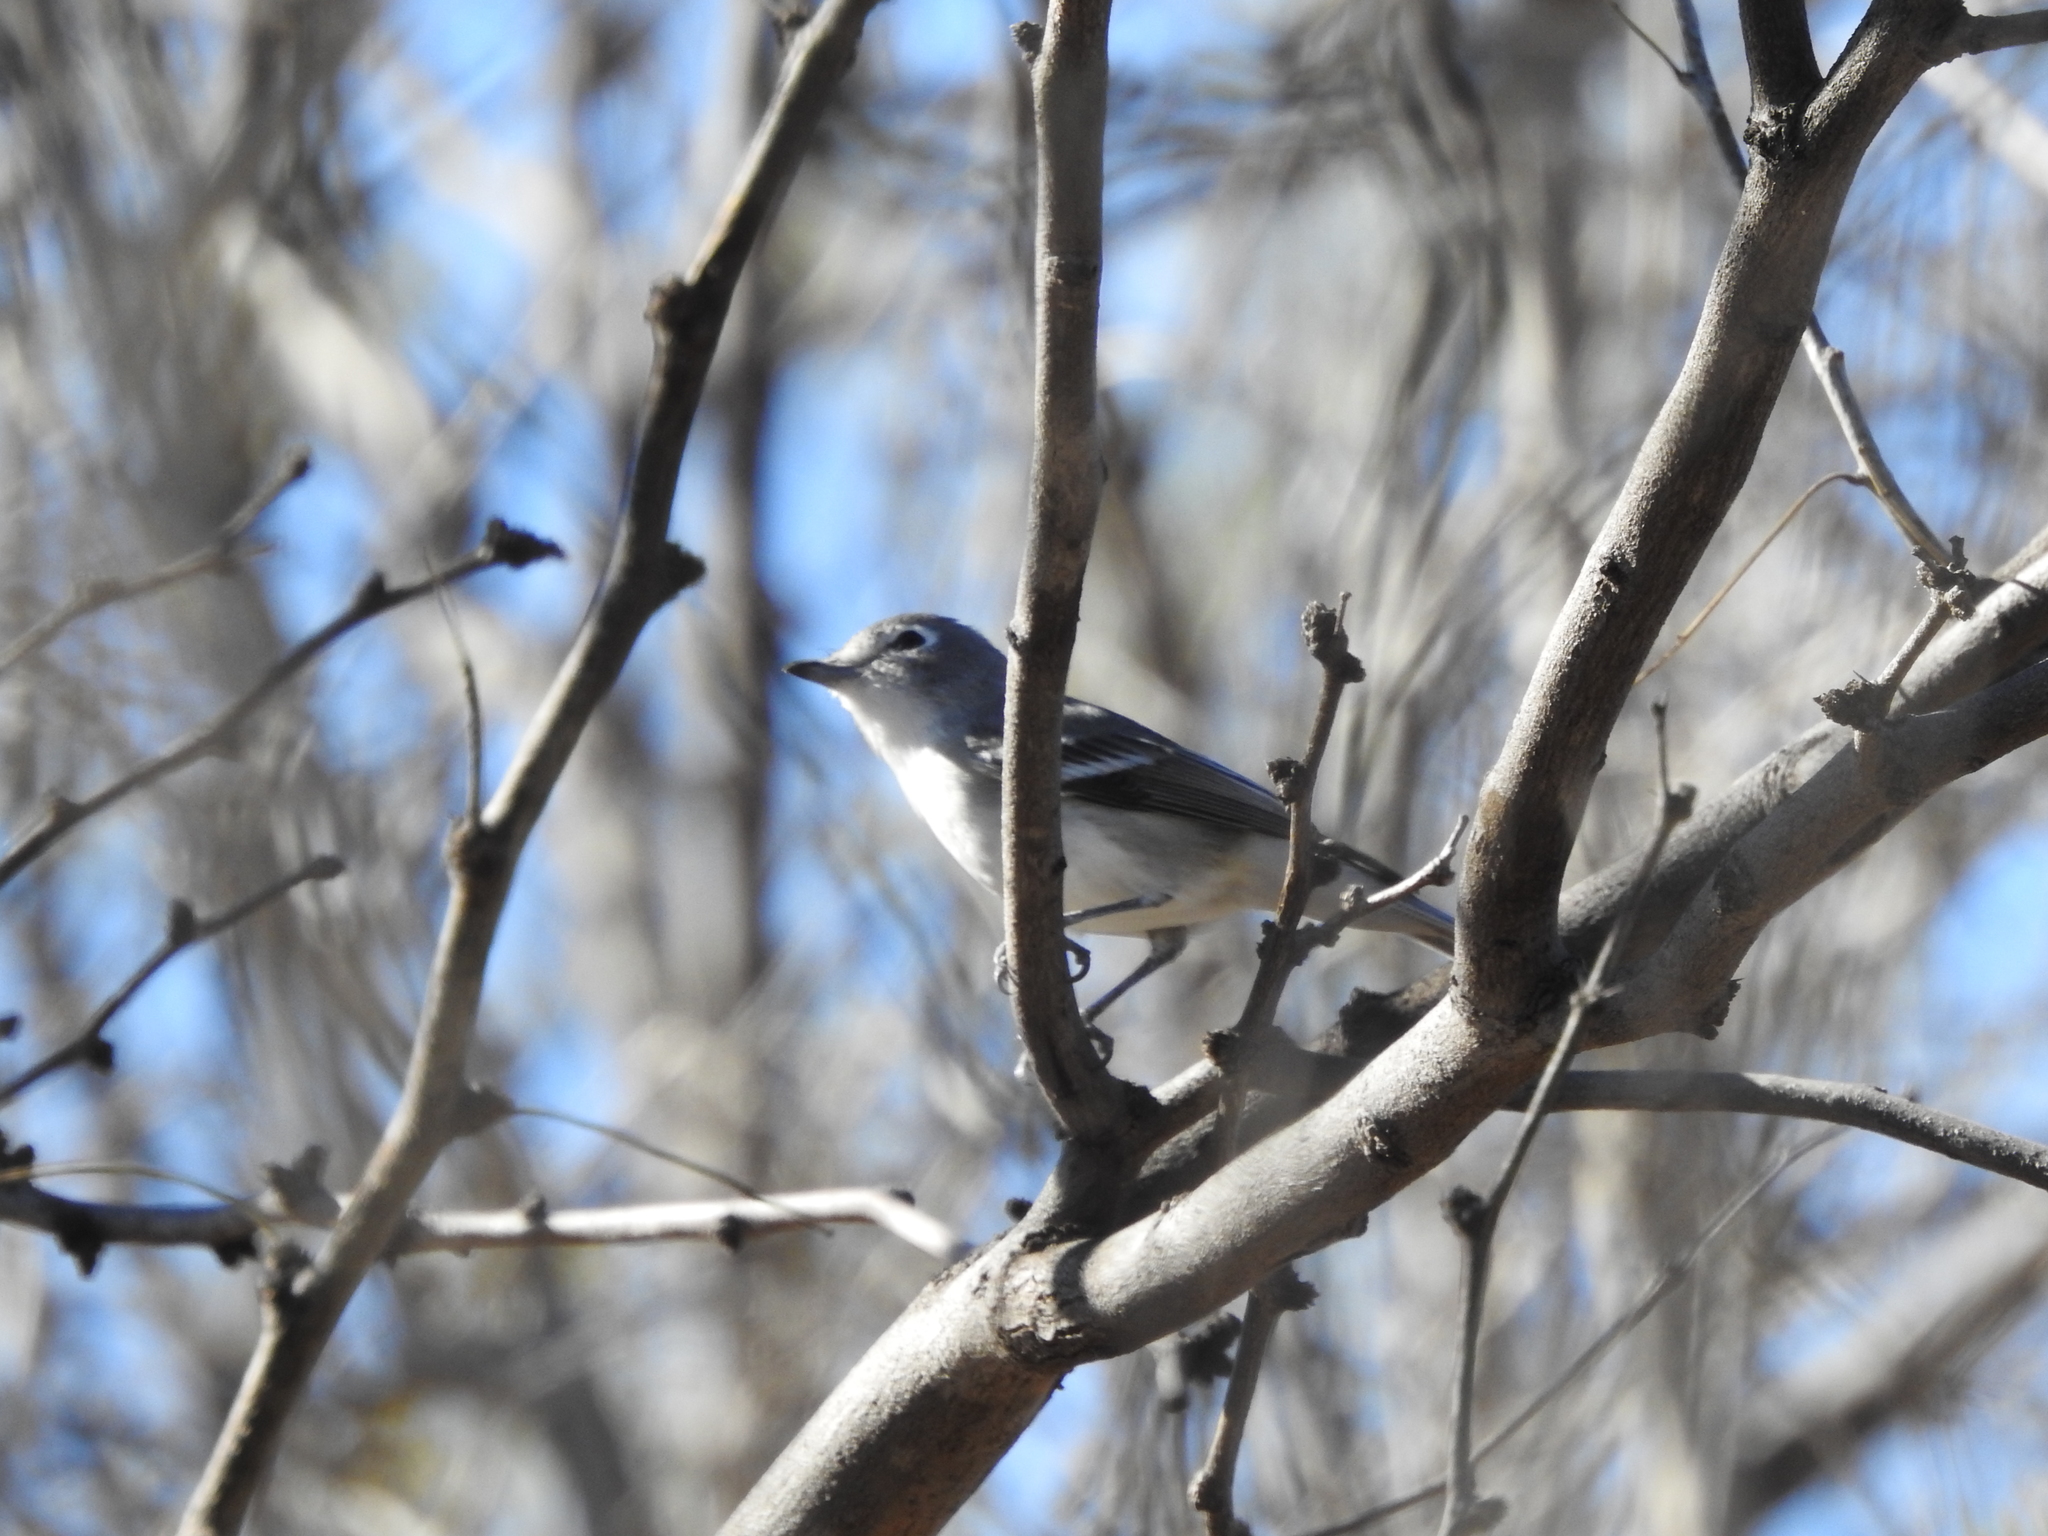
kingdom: Animalia
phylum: Chordata
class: Aves
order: Passeriformes
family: Vireonidae
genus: Vireo
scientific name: Vireo plumbeus
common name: Plumbeous vireo
